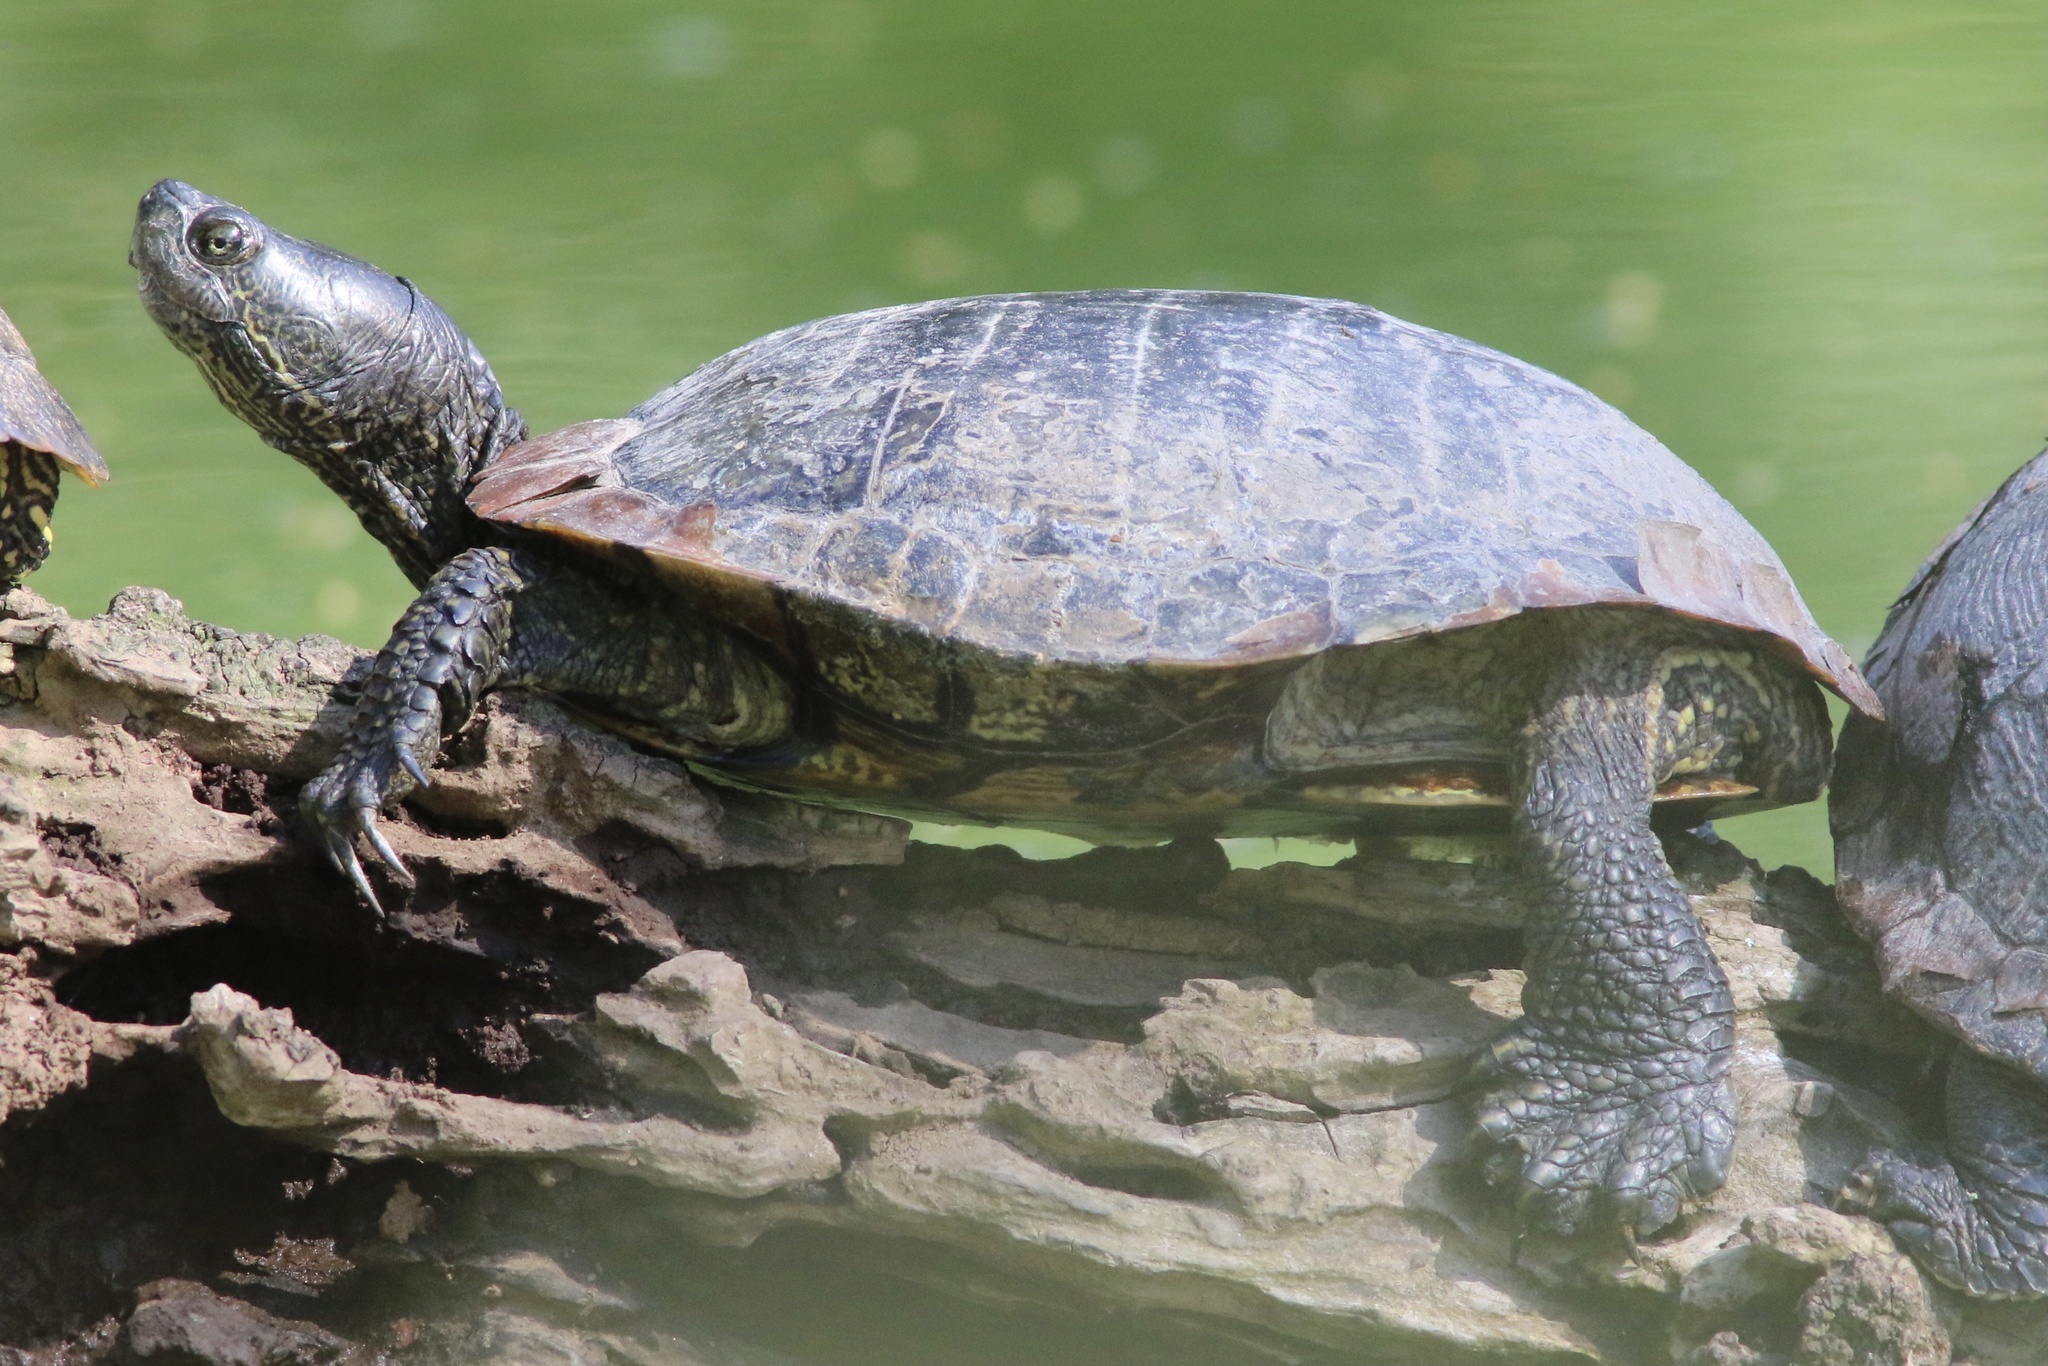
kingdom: Animalia
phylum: Chordata
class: Testudines
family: Emydidae
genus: Trachemys
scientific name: Trachemys scripta
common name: Slider
